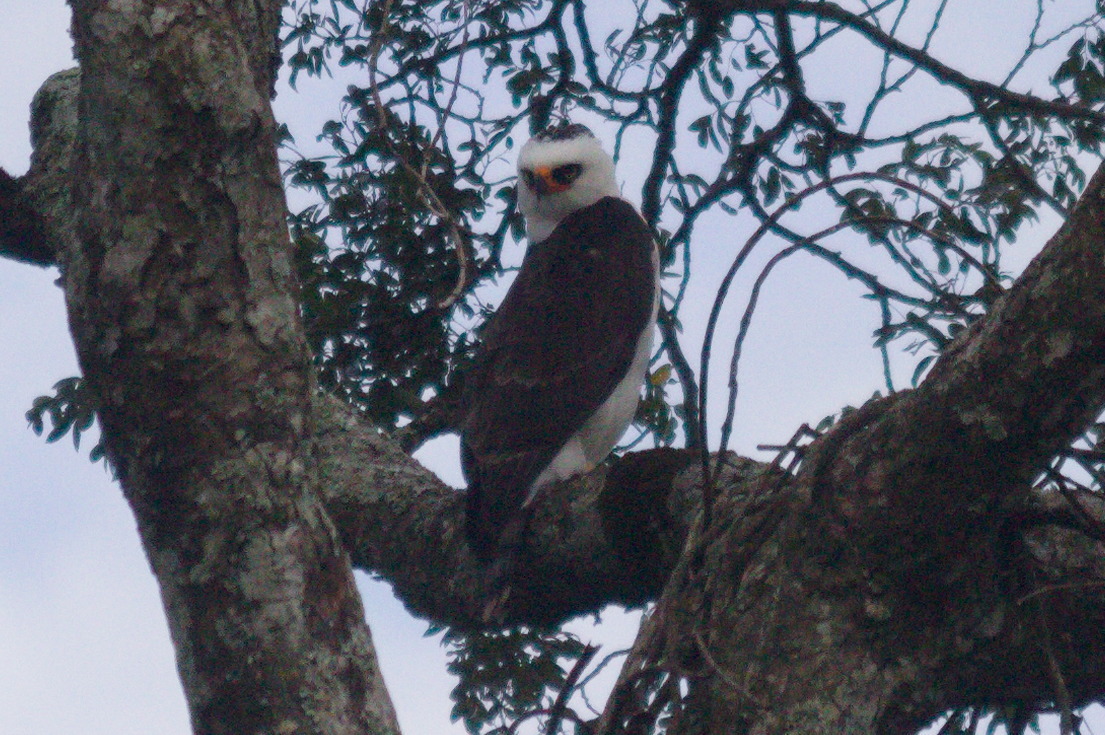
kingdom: Animalia
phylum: Chordata
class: Aves
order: Accipitriformes
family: Accipitridae
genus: Spizaetus
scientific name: Spizaetus melanoleucus
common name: Black-and-white hawk-eagle
